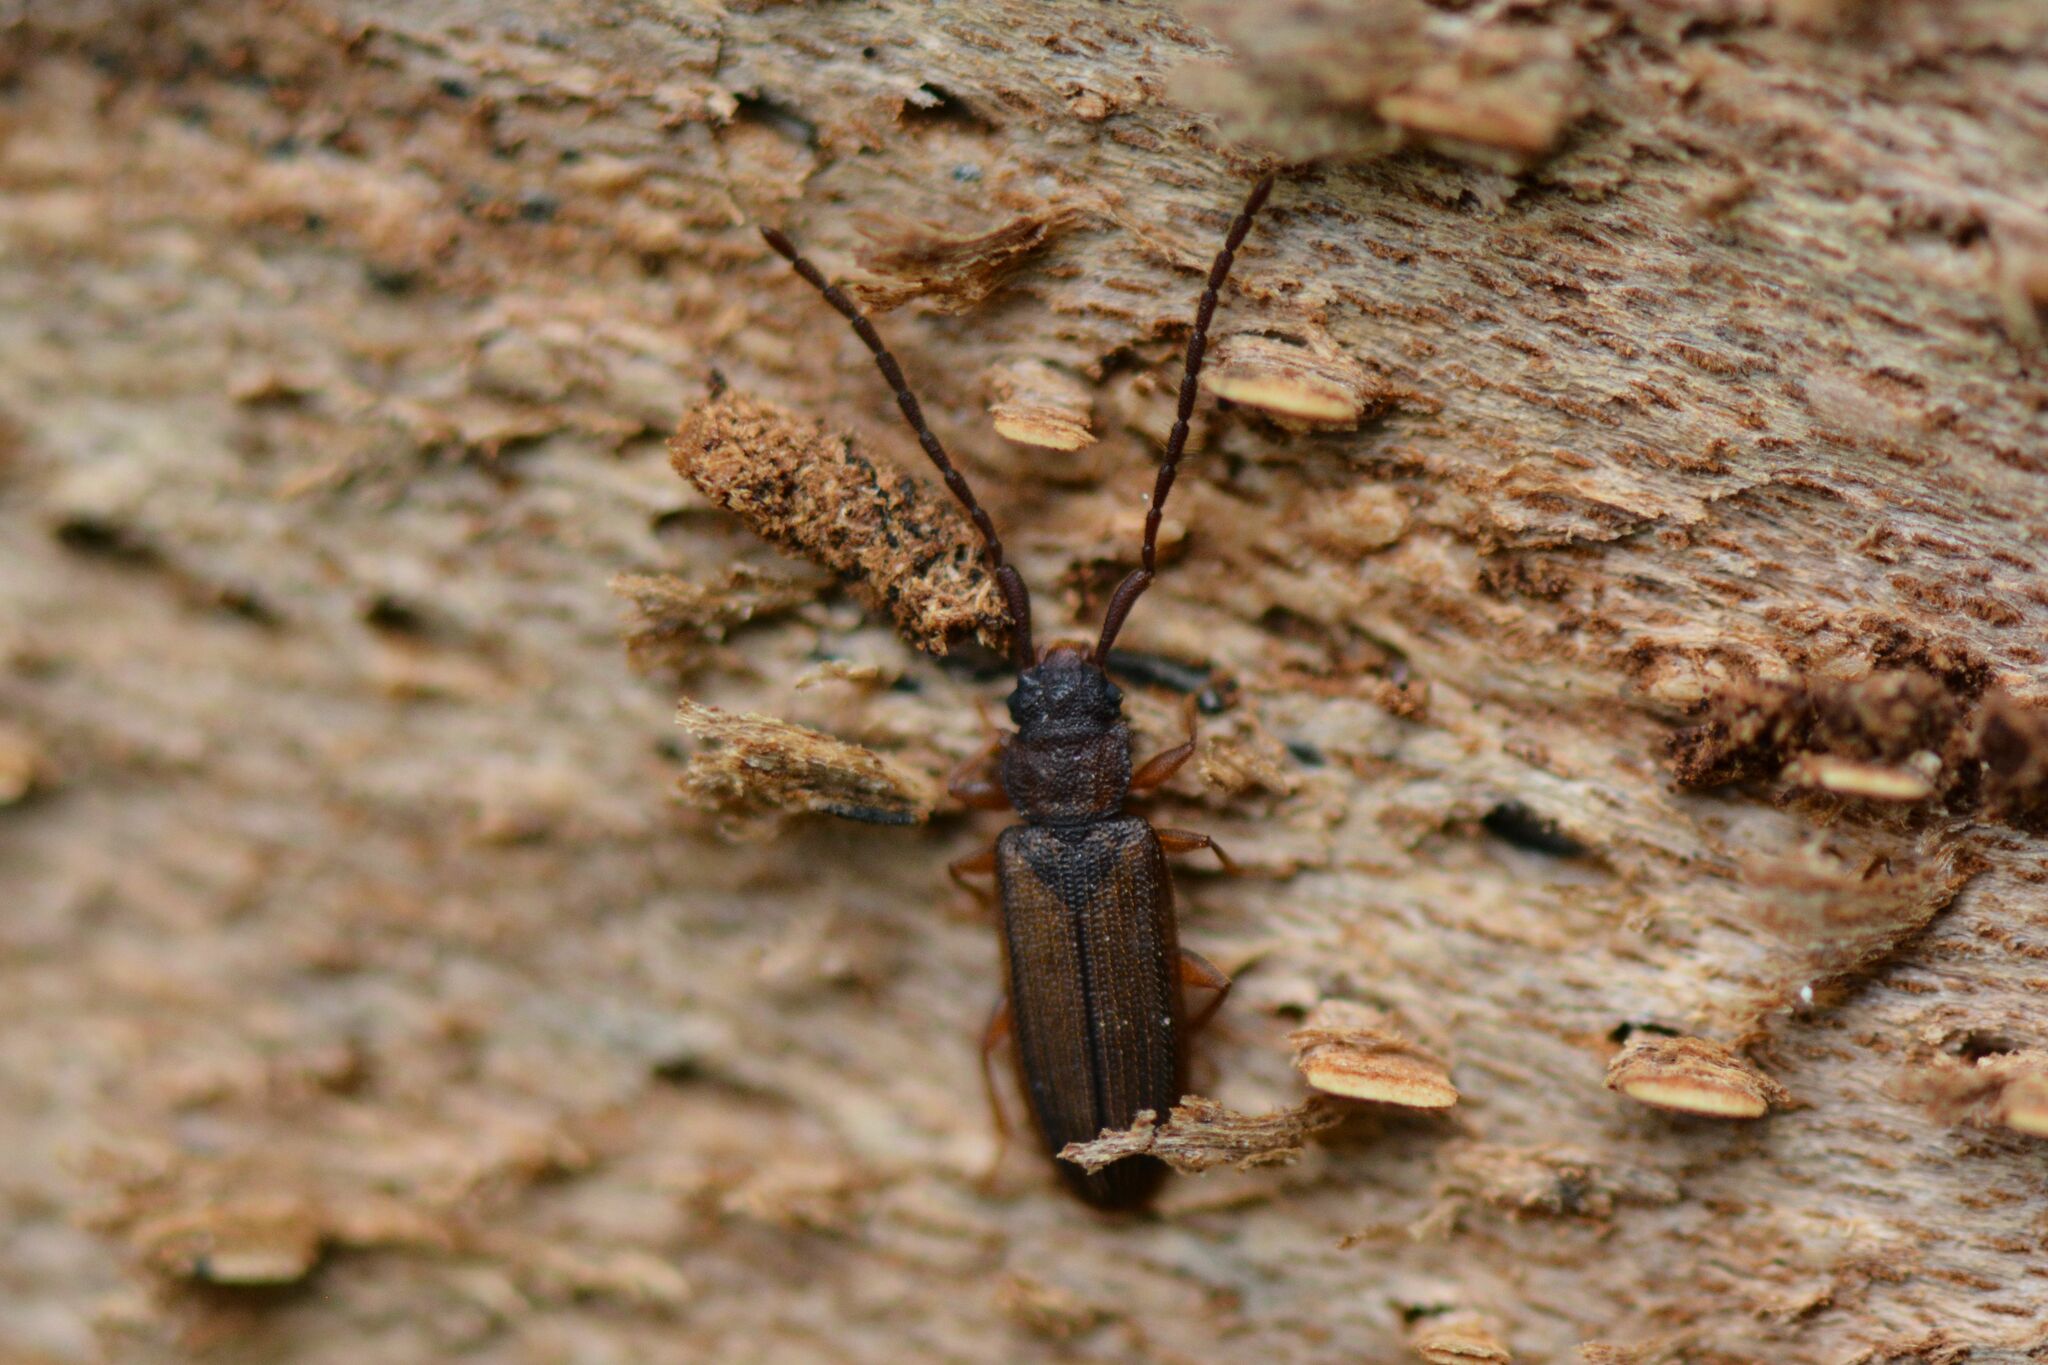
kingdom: Animalia
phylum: Arthropoda
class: Insecta
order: Coleoptera
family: Silvanidae
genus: Uleiota
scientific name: Uleiota planatus
